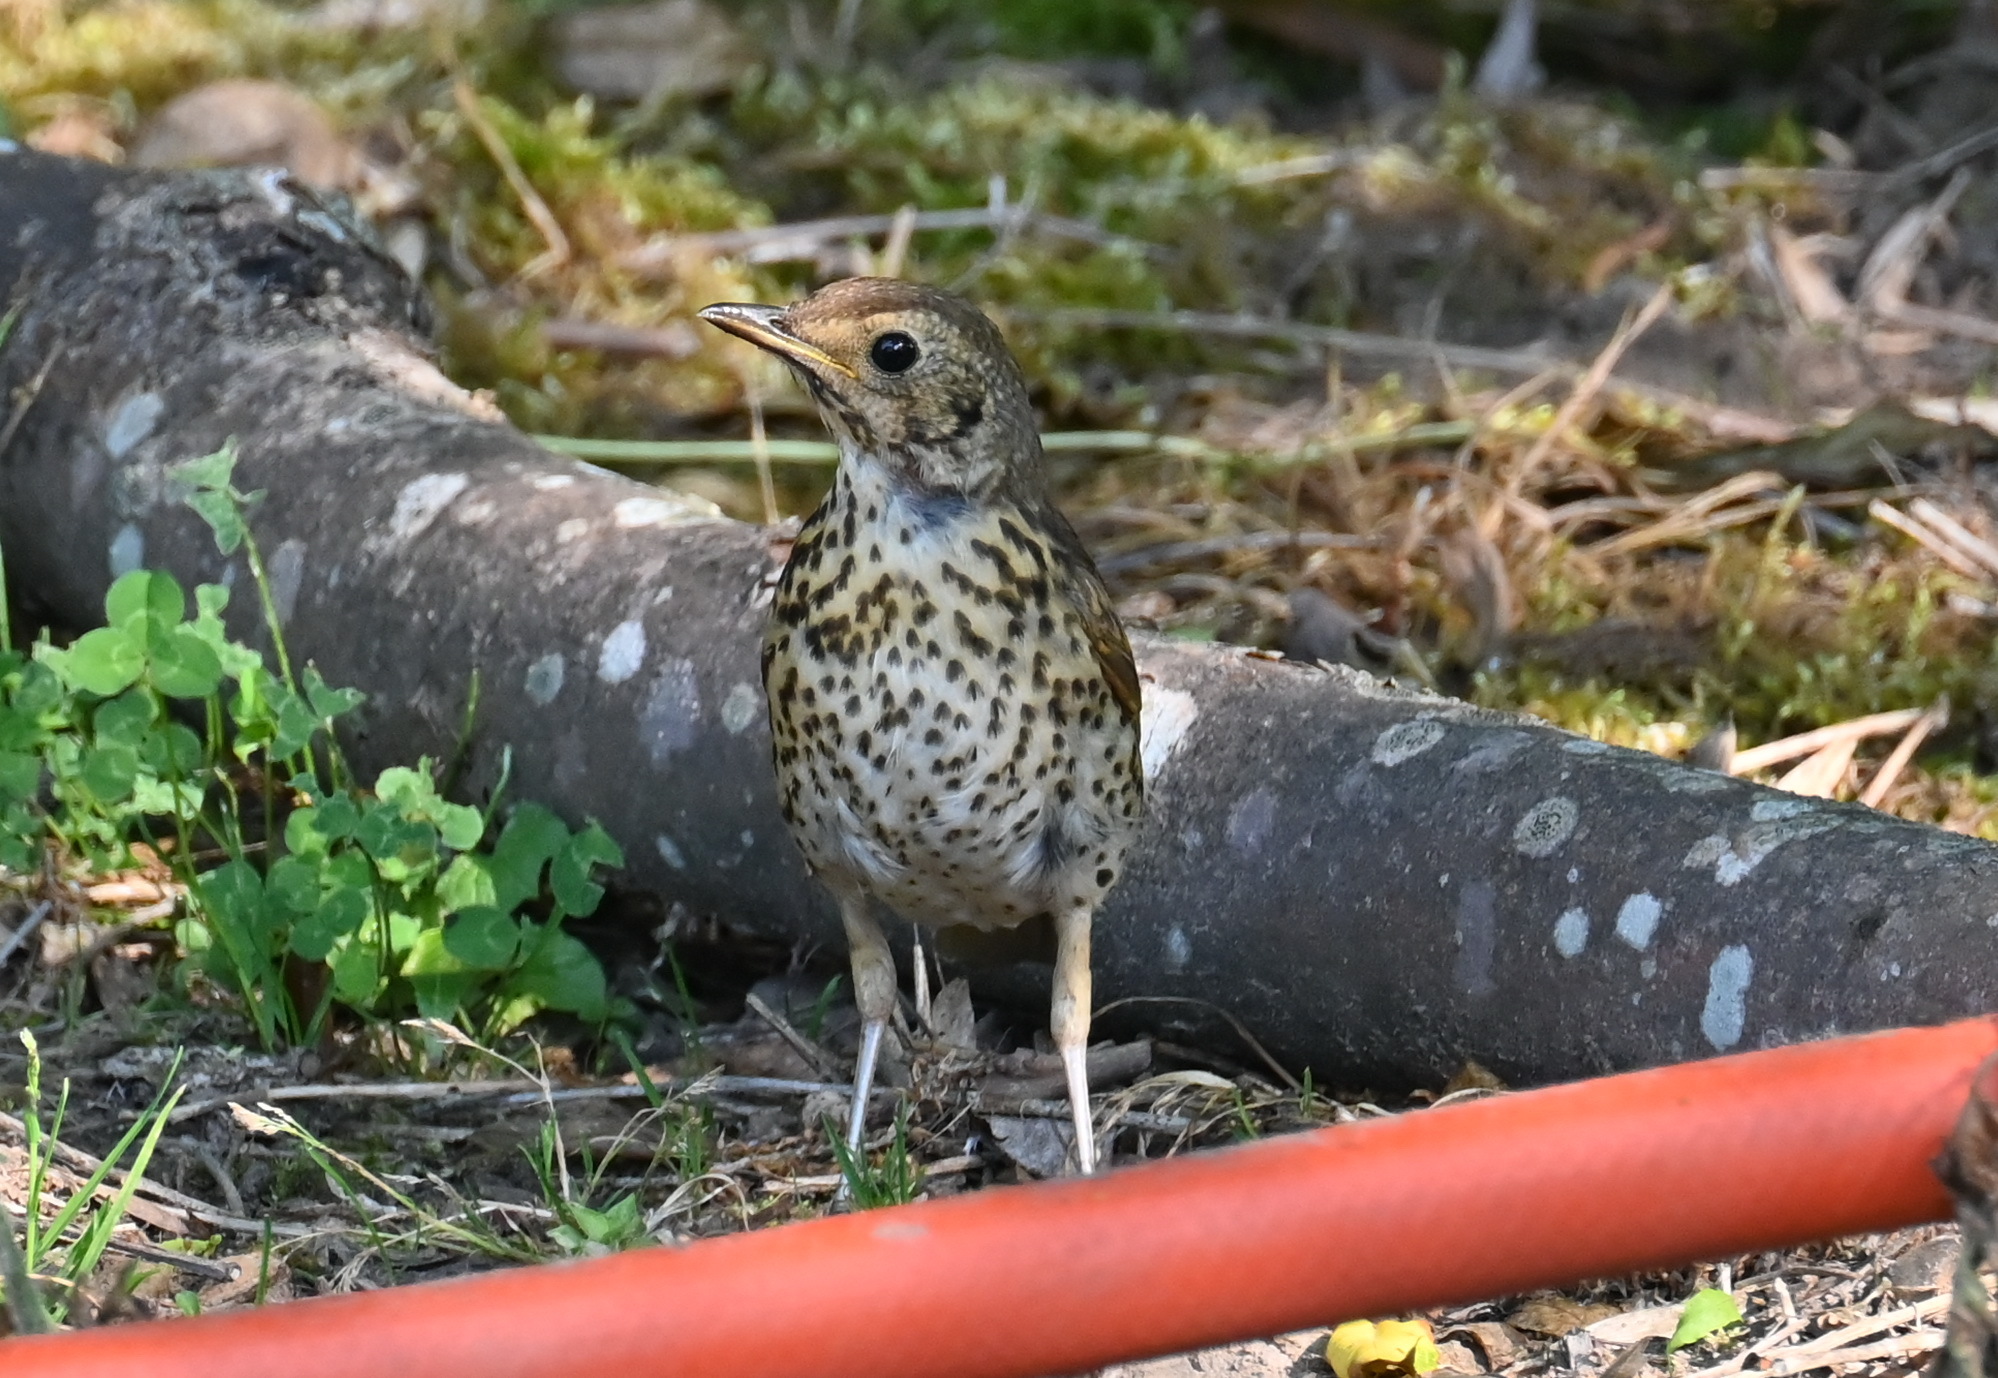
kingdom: Animalia
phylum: Chordata
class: Aves
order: Passeriformes
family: Turdidae
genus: Turdus
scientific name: Turdus philomelos
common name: Song thrush
